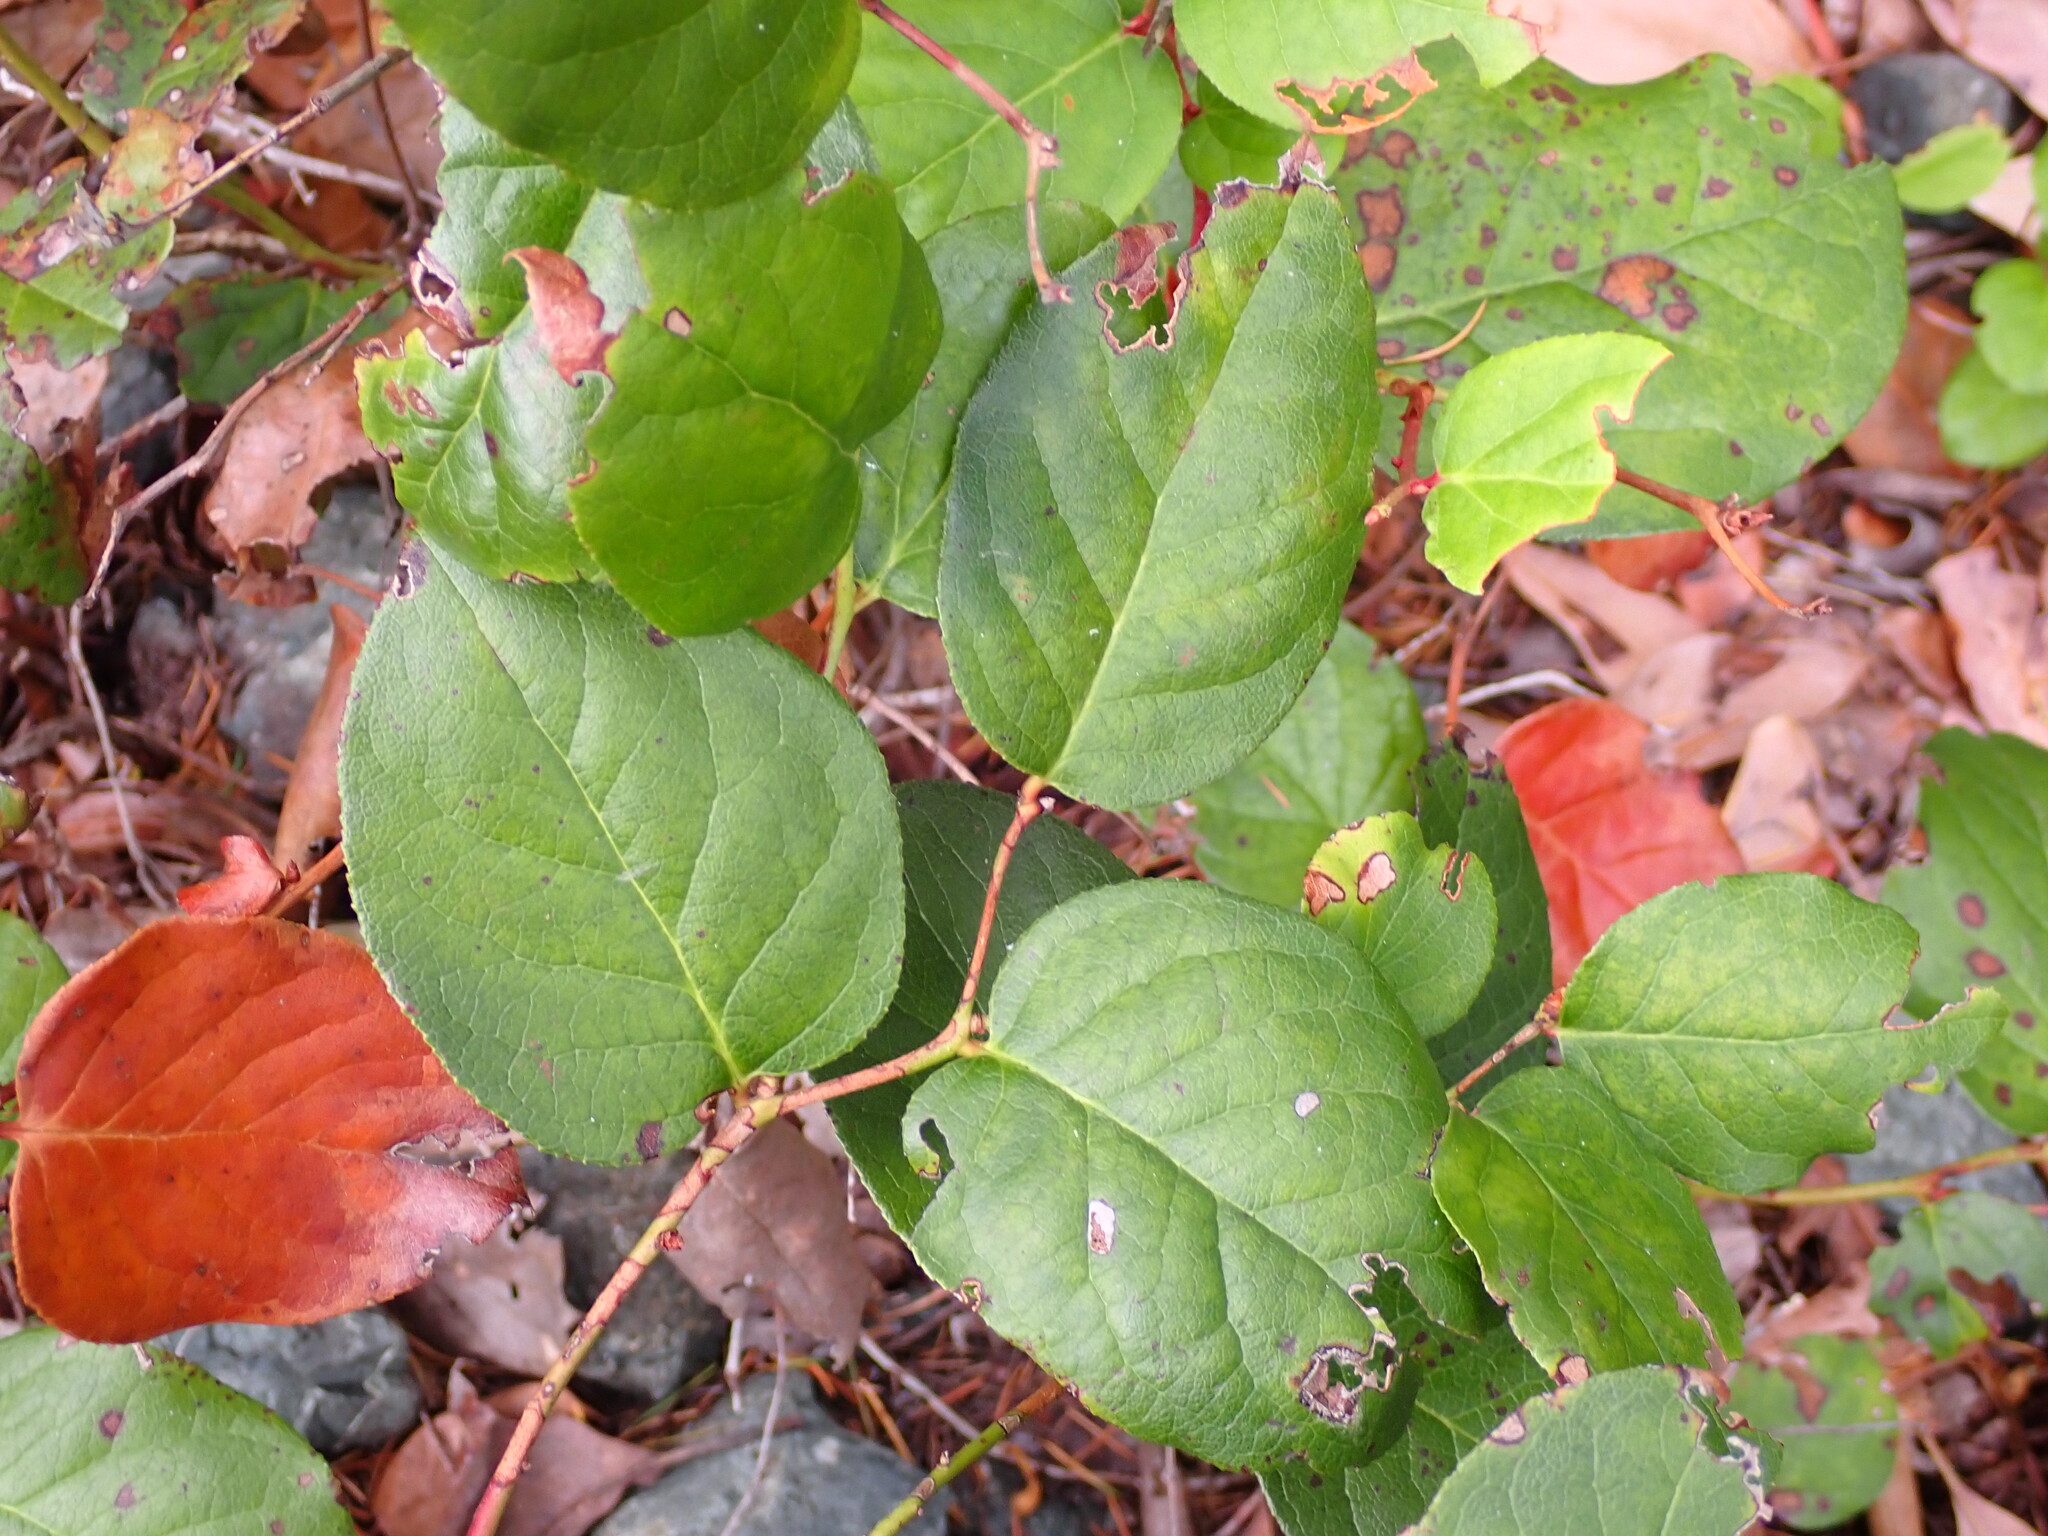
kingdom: Plantae
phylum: Tracheophyta
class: Magnoliopsida
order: Ericales
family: Ericaceae
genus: Gaultheria
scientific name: Gaultheria shallon
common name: Shallon
